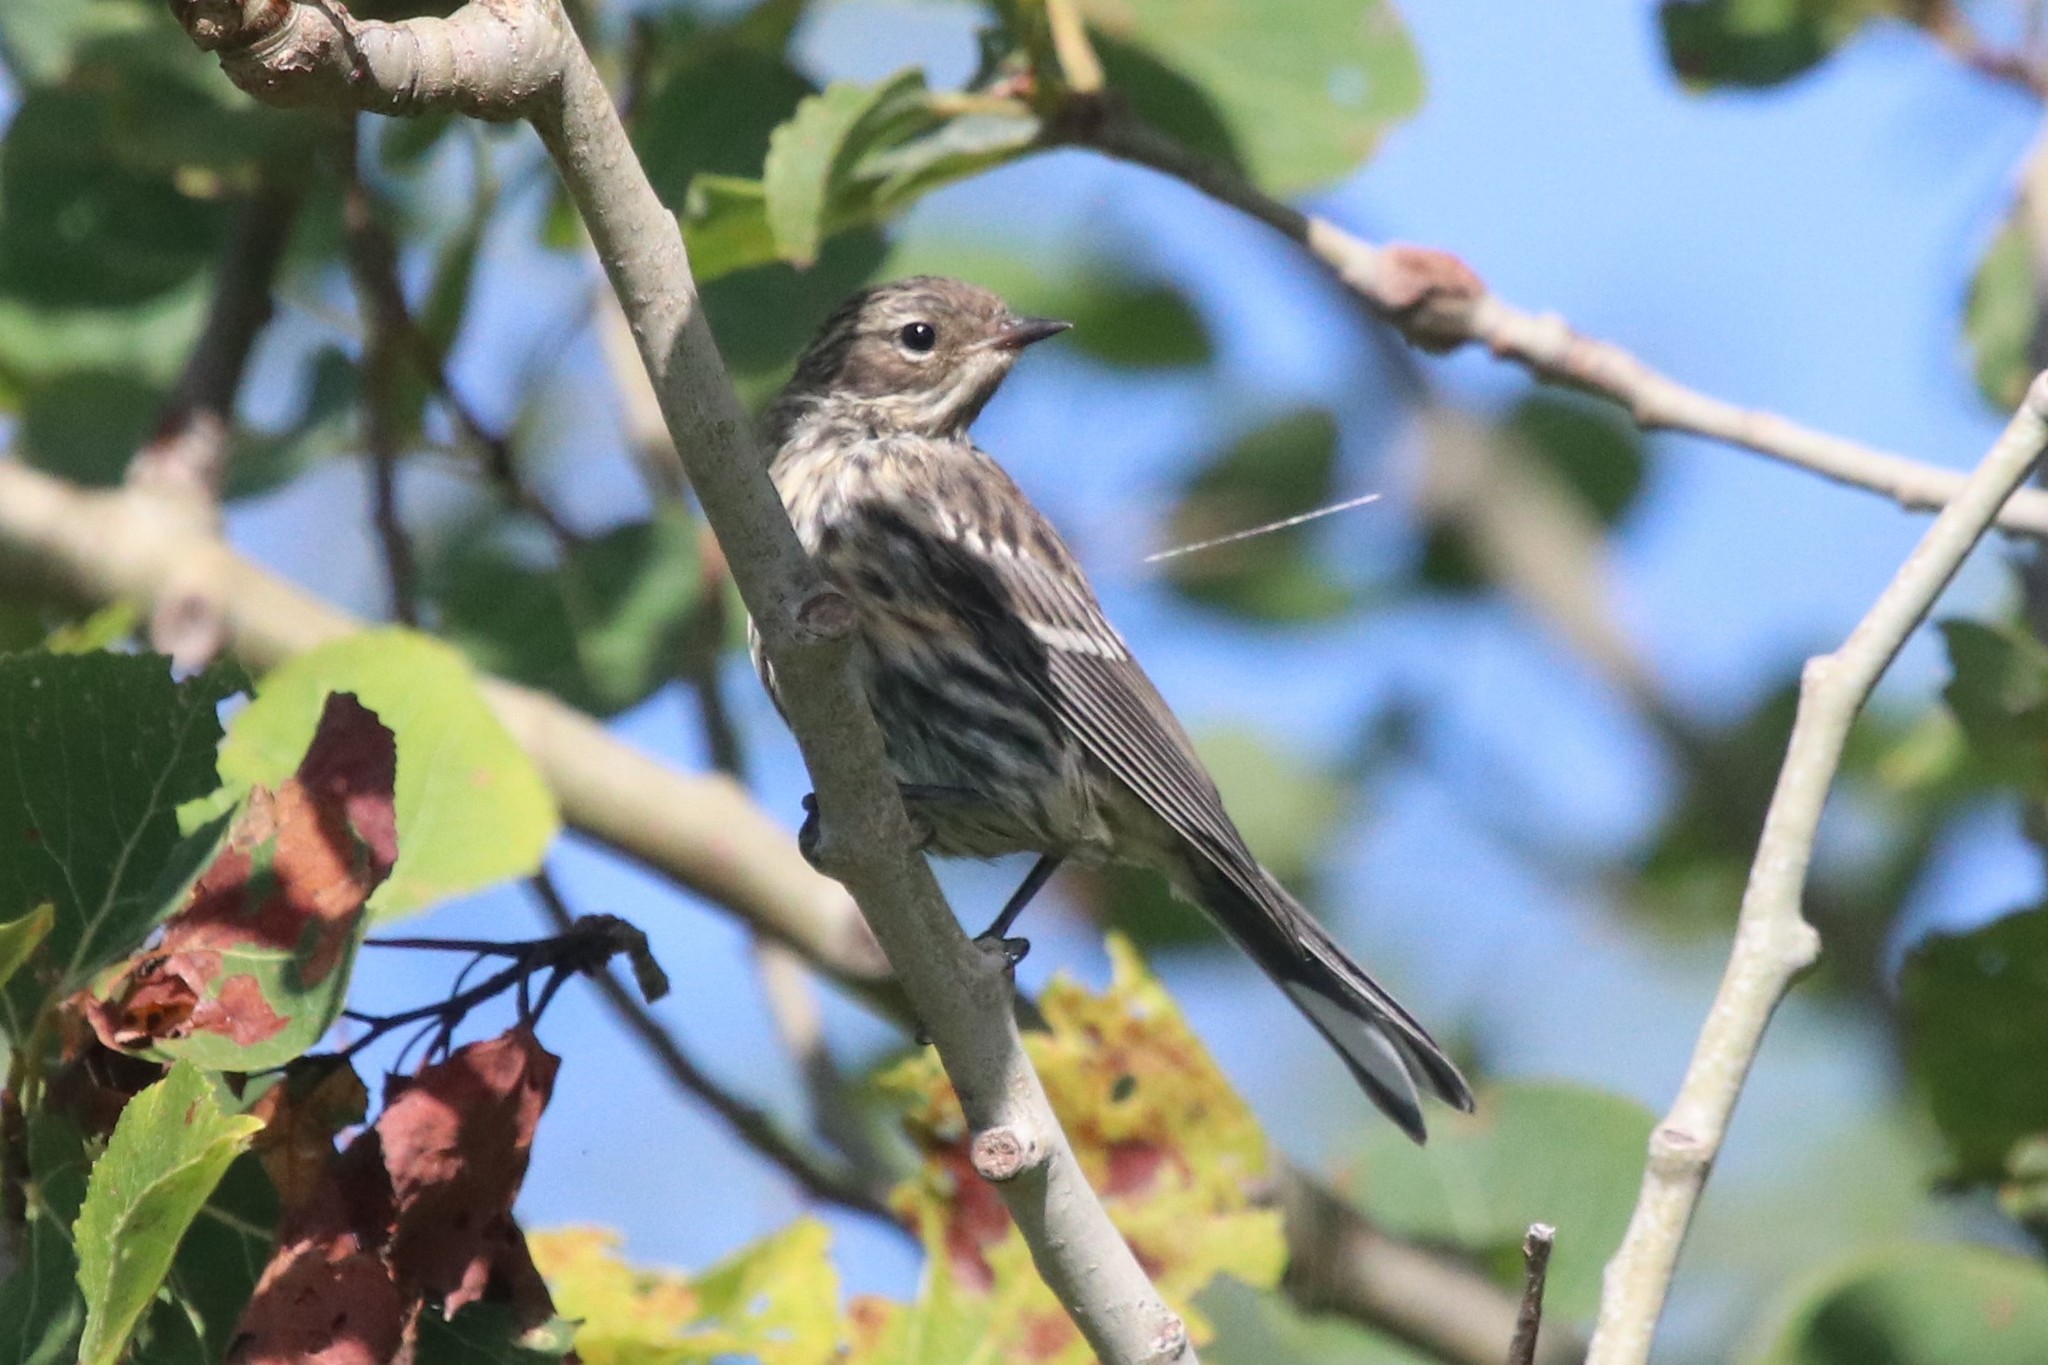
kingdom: Animalia
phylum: Chordata
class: Aves
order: Passeriformes
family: Parulidae
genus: Setophaga
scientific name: Setophaga coronata
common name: Myrtle warbler
